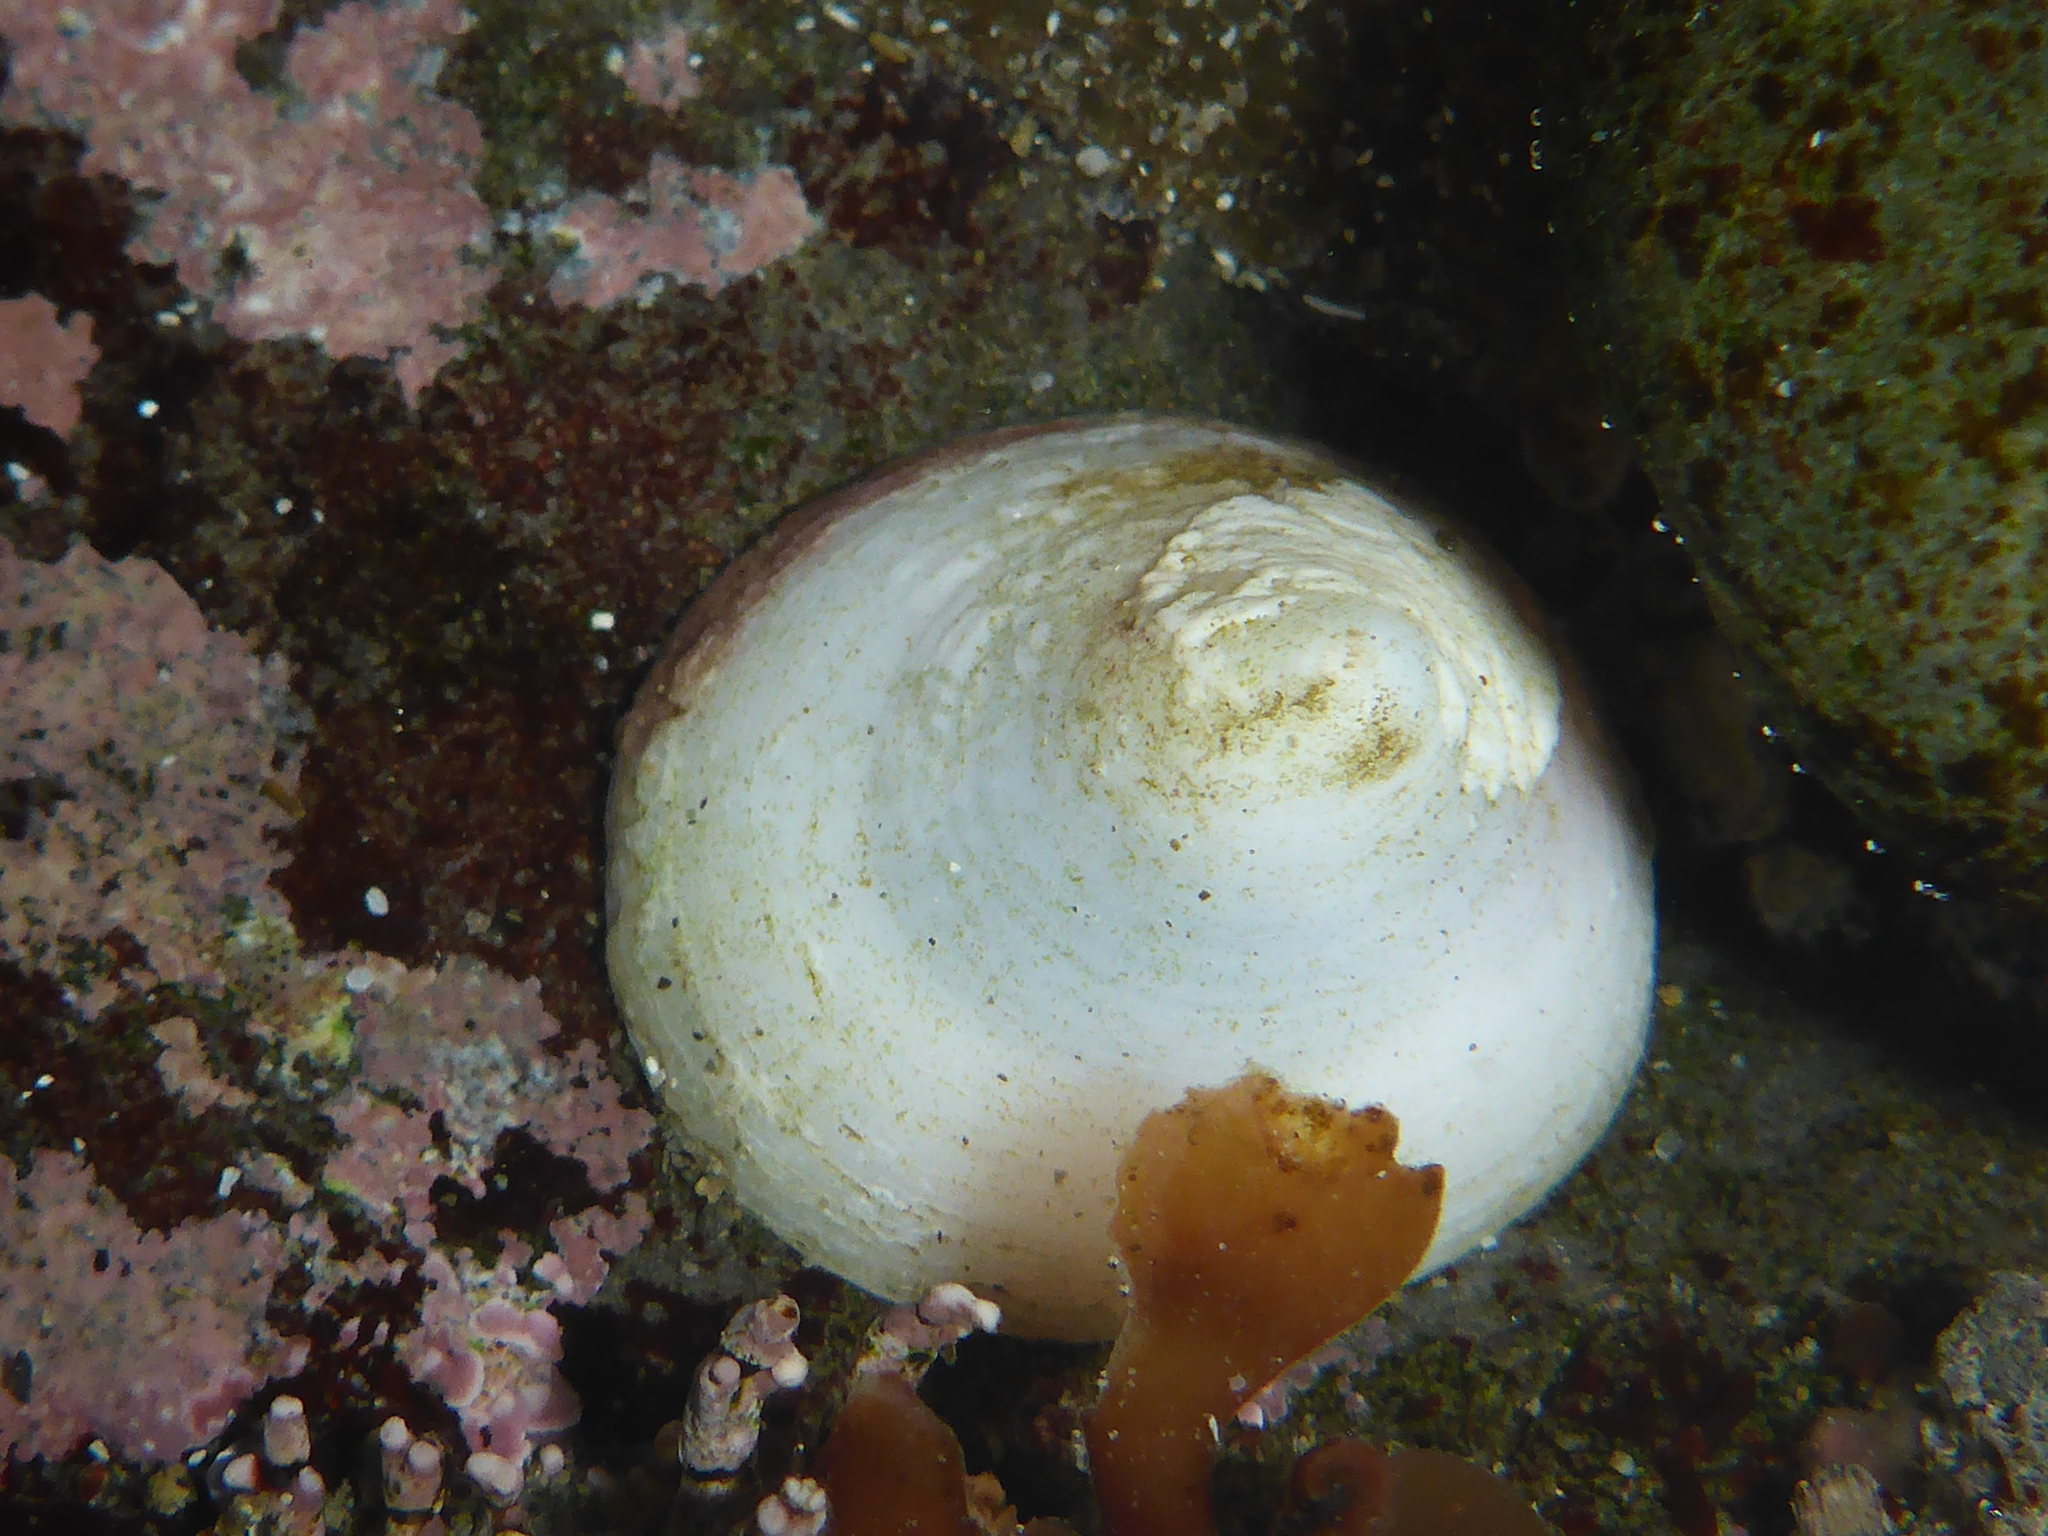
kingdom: Animalia
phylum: Mollusca
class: Gastropoda
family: Acmaeidae
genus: Acmaea
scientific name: Acmaea mitra
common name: Pacific white cap limpet
